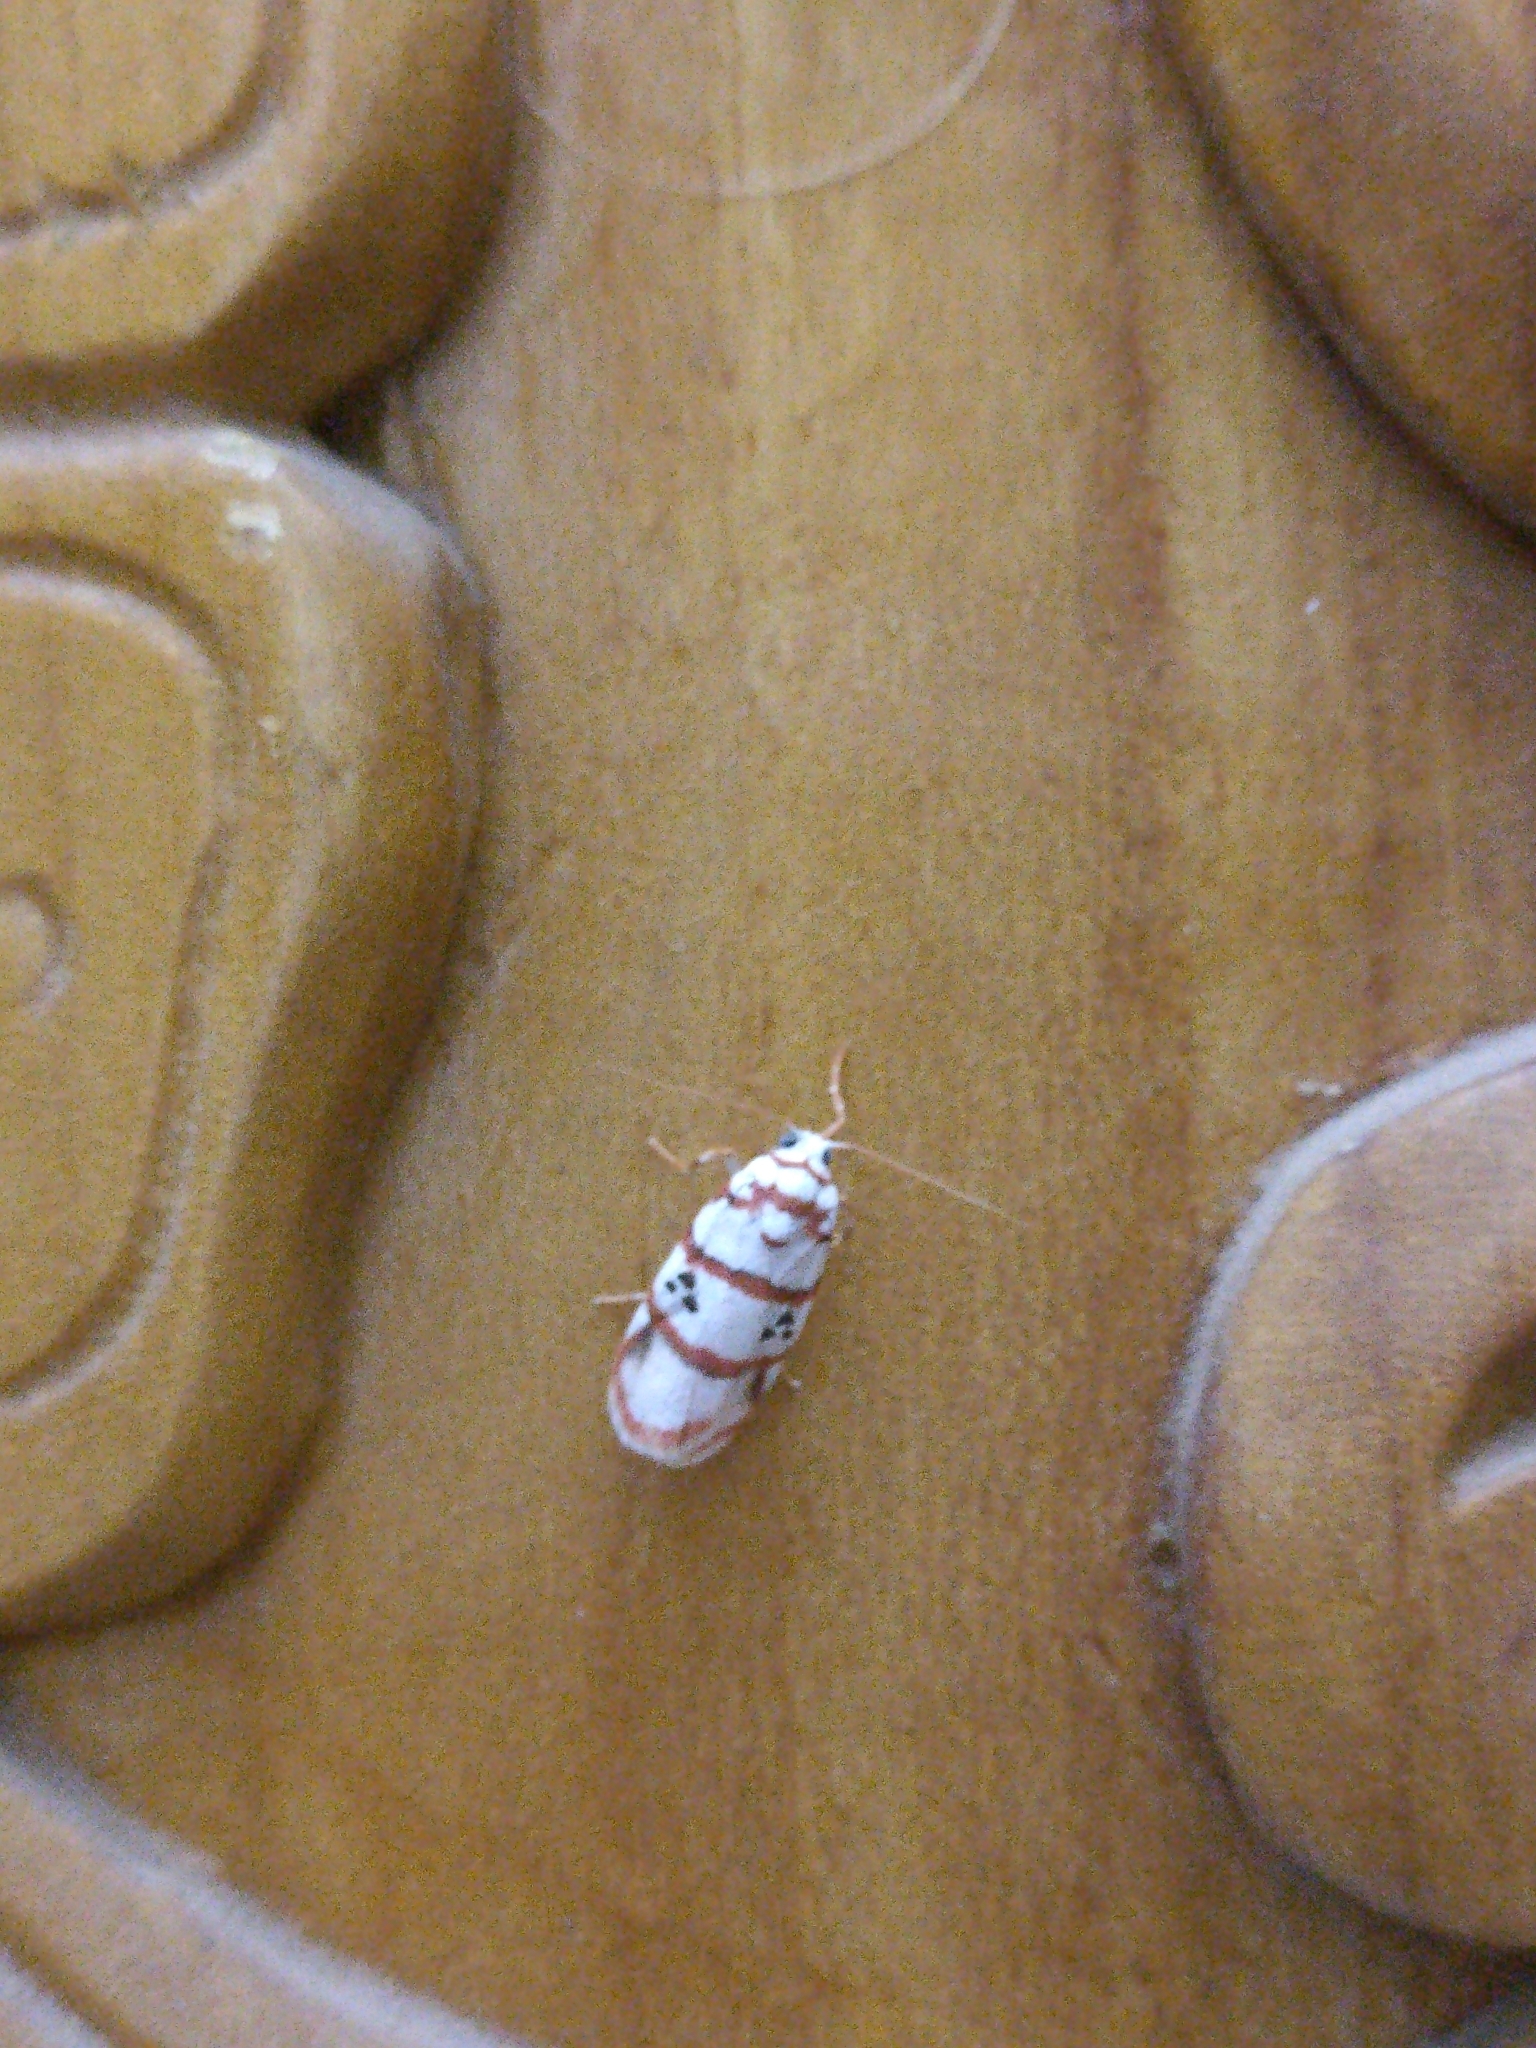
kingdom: Animalia
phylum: Arthropoda
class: Insecta
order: Lepidoptera
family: Erebidae
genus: Cyana
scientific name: Cyana peregrina
